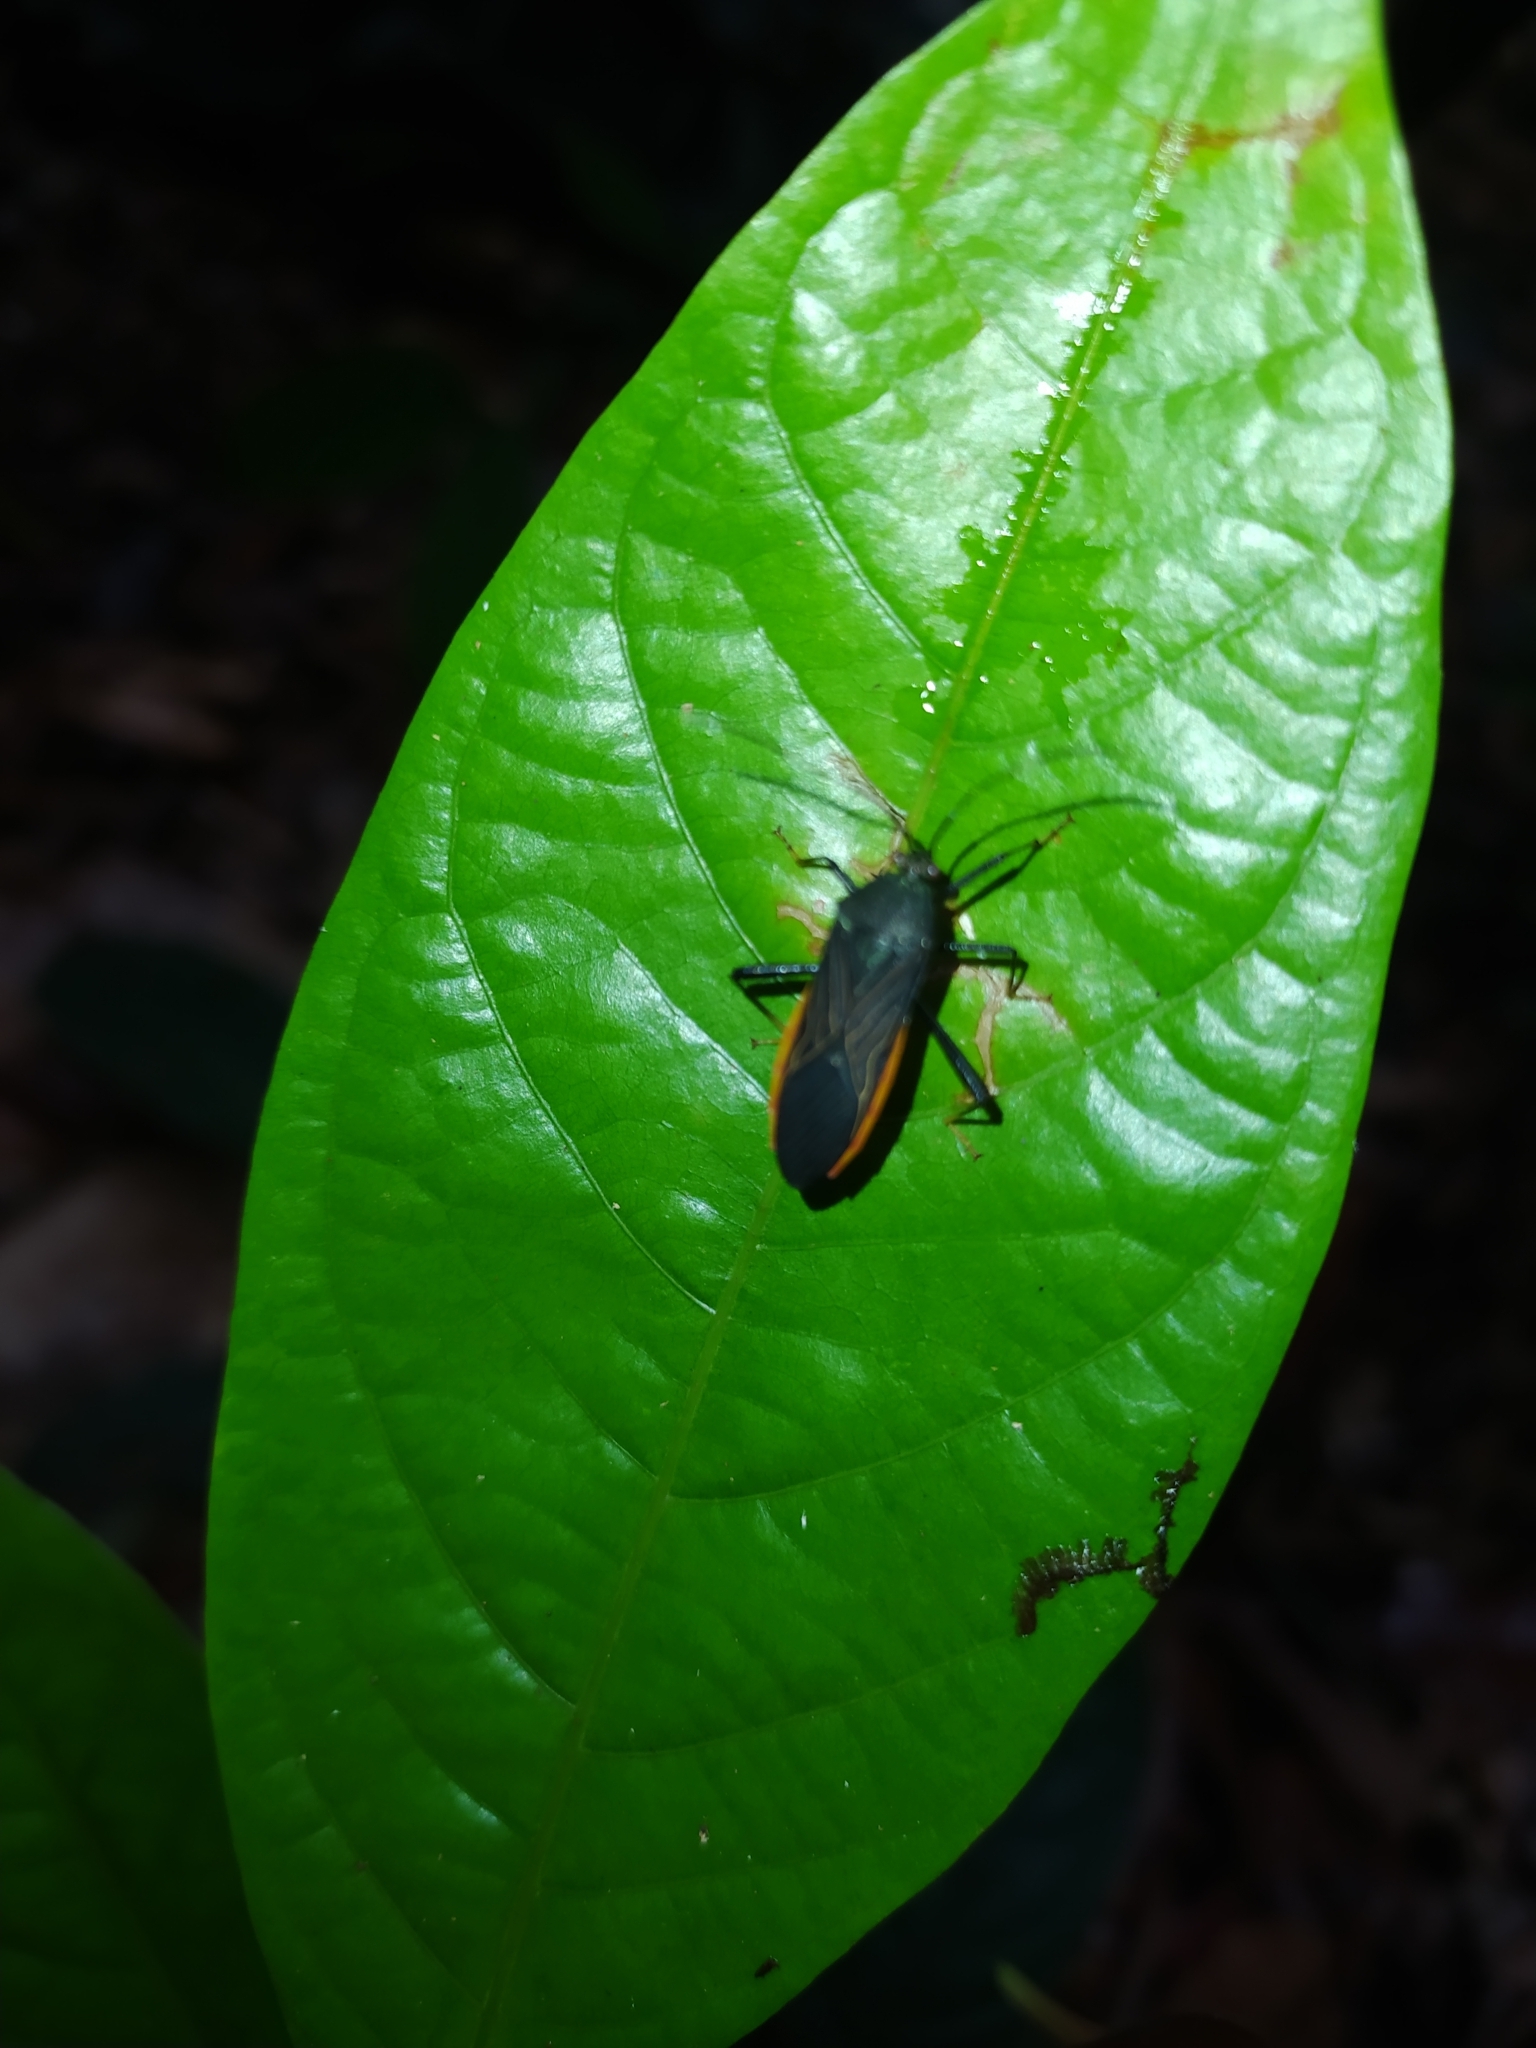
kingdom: Animalia
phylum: Arthropoda
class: Insecta
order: Hemiptera
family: Coreidae
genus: Nematopus
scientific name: Nematopus indus
